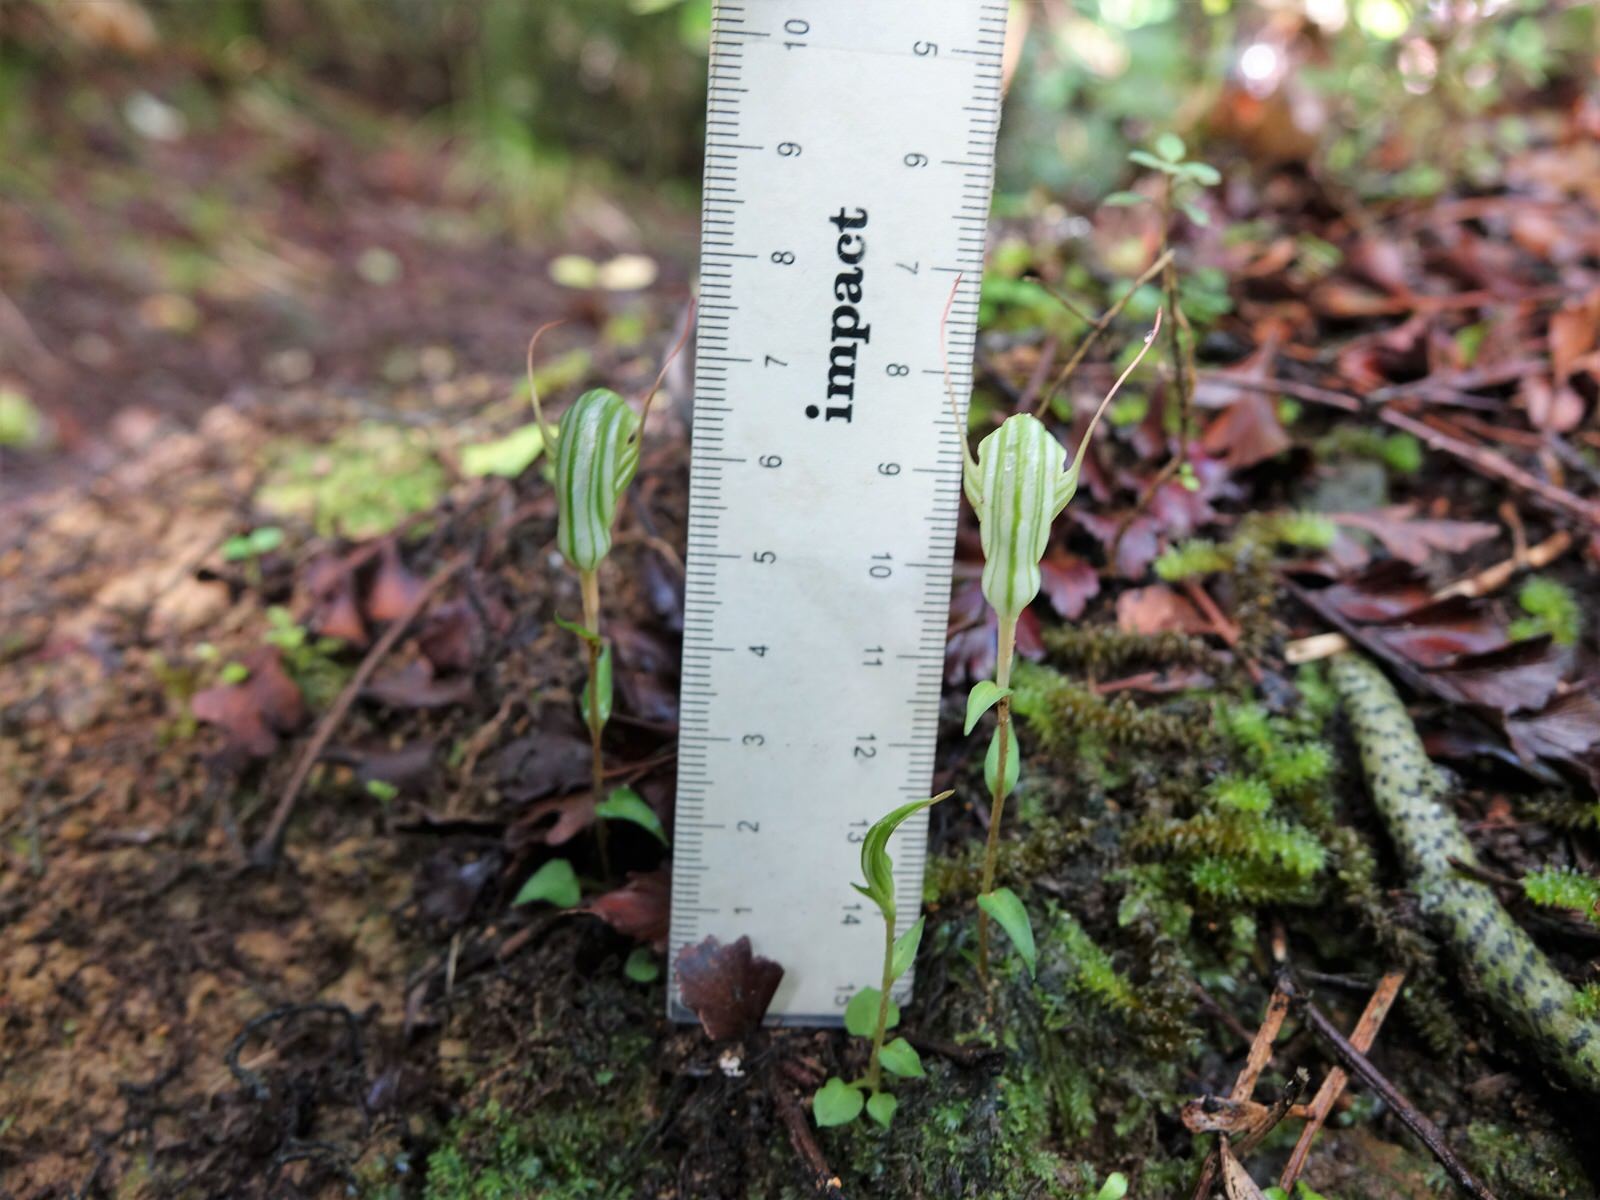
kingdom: Plantae
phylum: Tracheophyta
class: Liliopsida
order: Asparagales
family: Orchidaceae
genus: Pterostylis
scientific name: Pterostylis alobula
